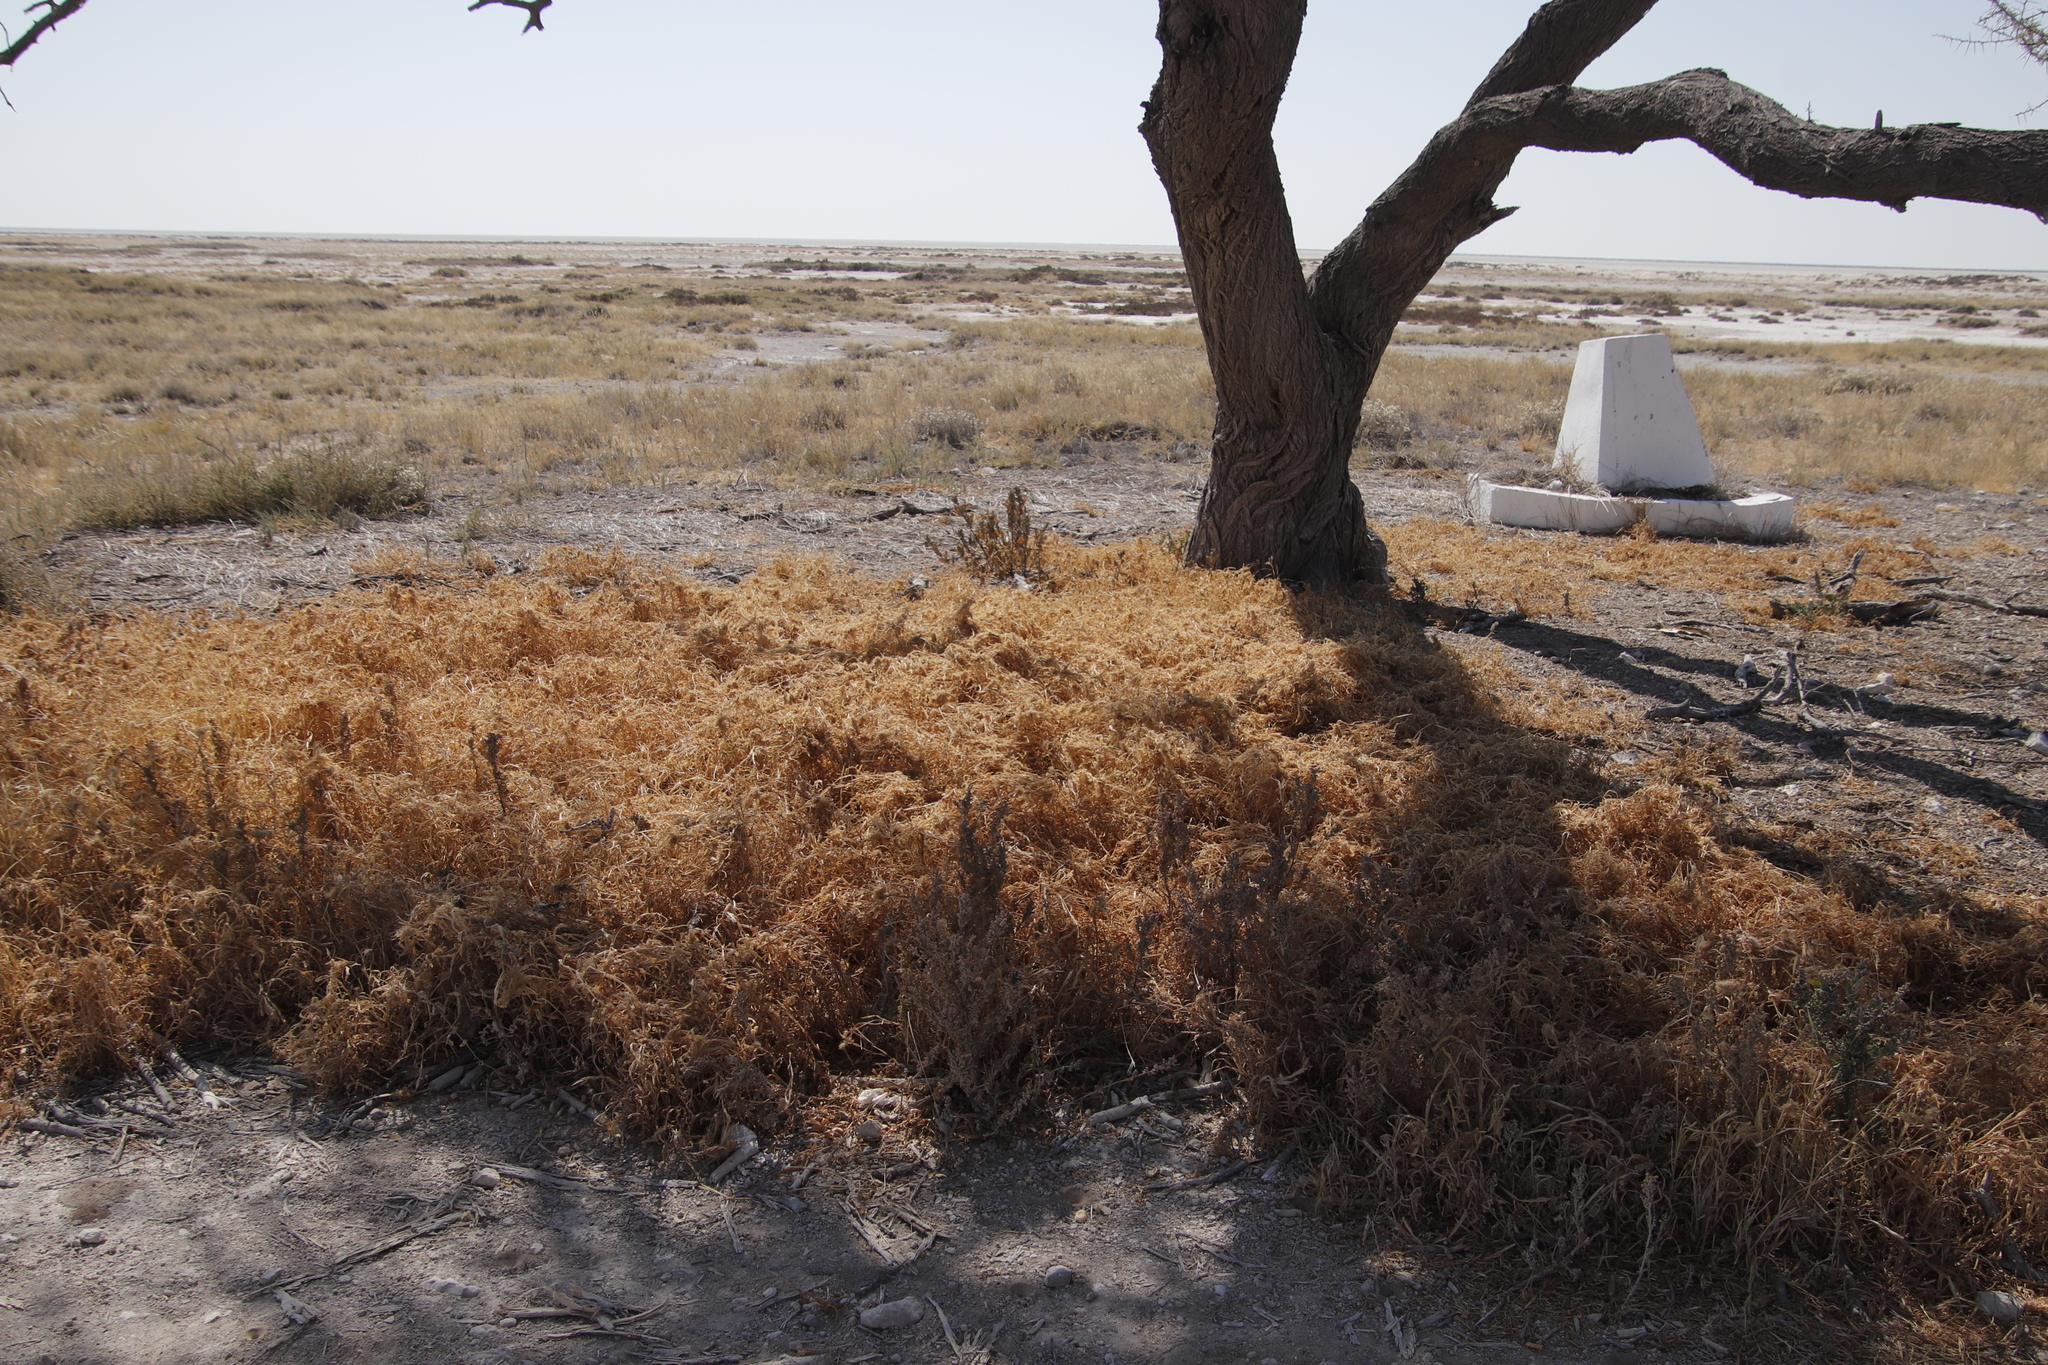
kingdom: Plantae
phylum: Tracheophyta
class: Liliopsida
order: Poales
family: Poaceae
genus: Setaria
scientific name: Setaria verticillata
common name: Hooked bristlegrass
